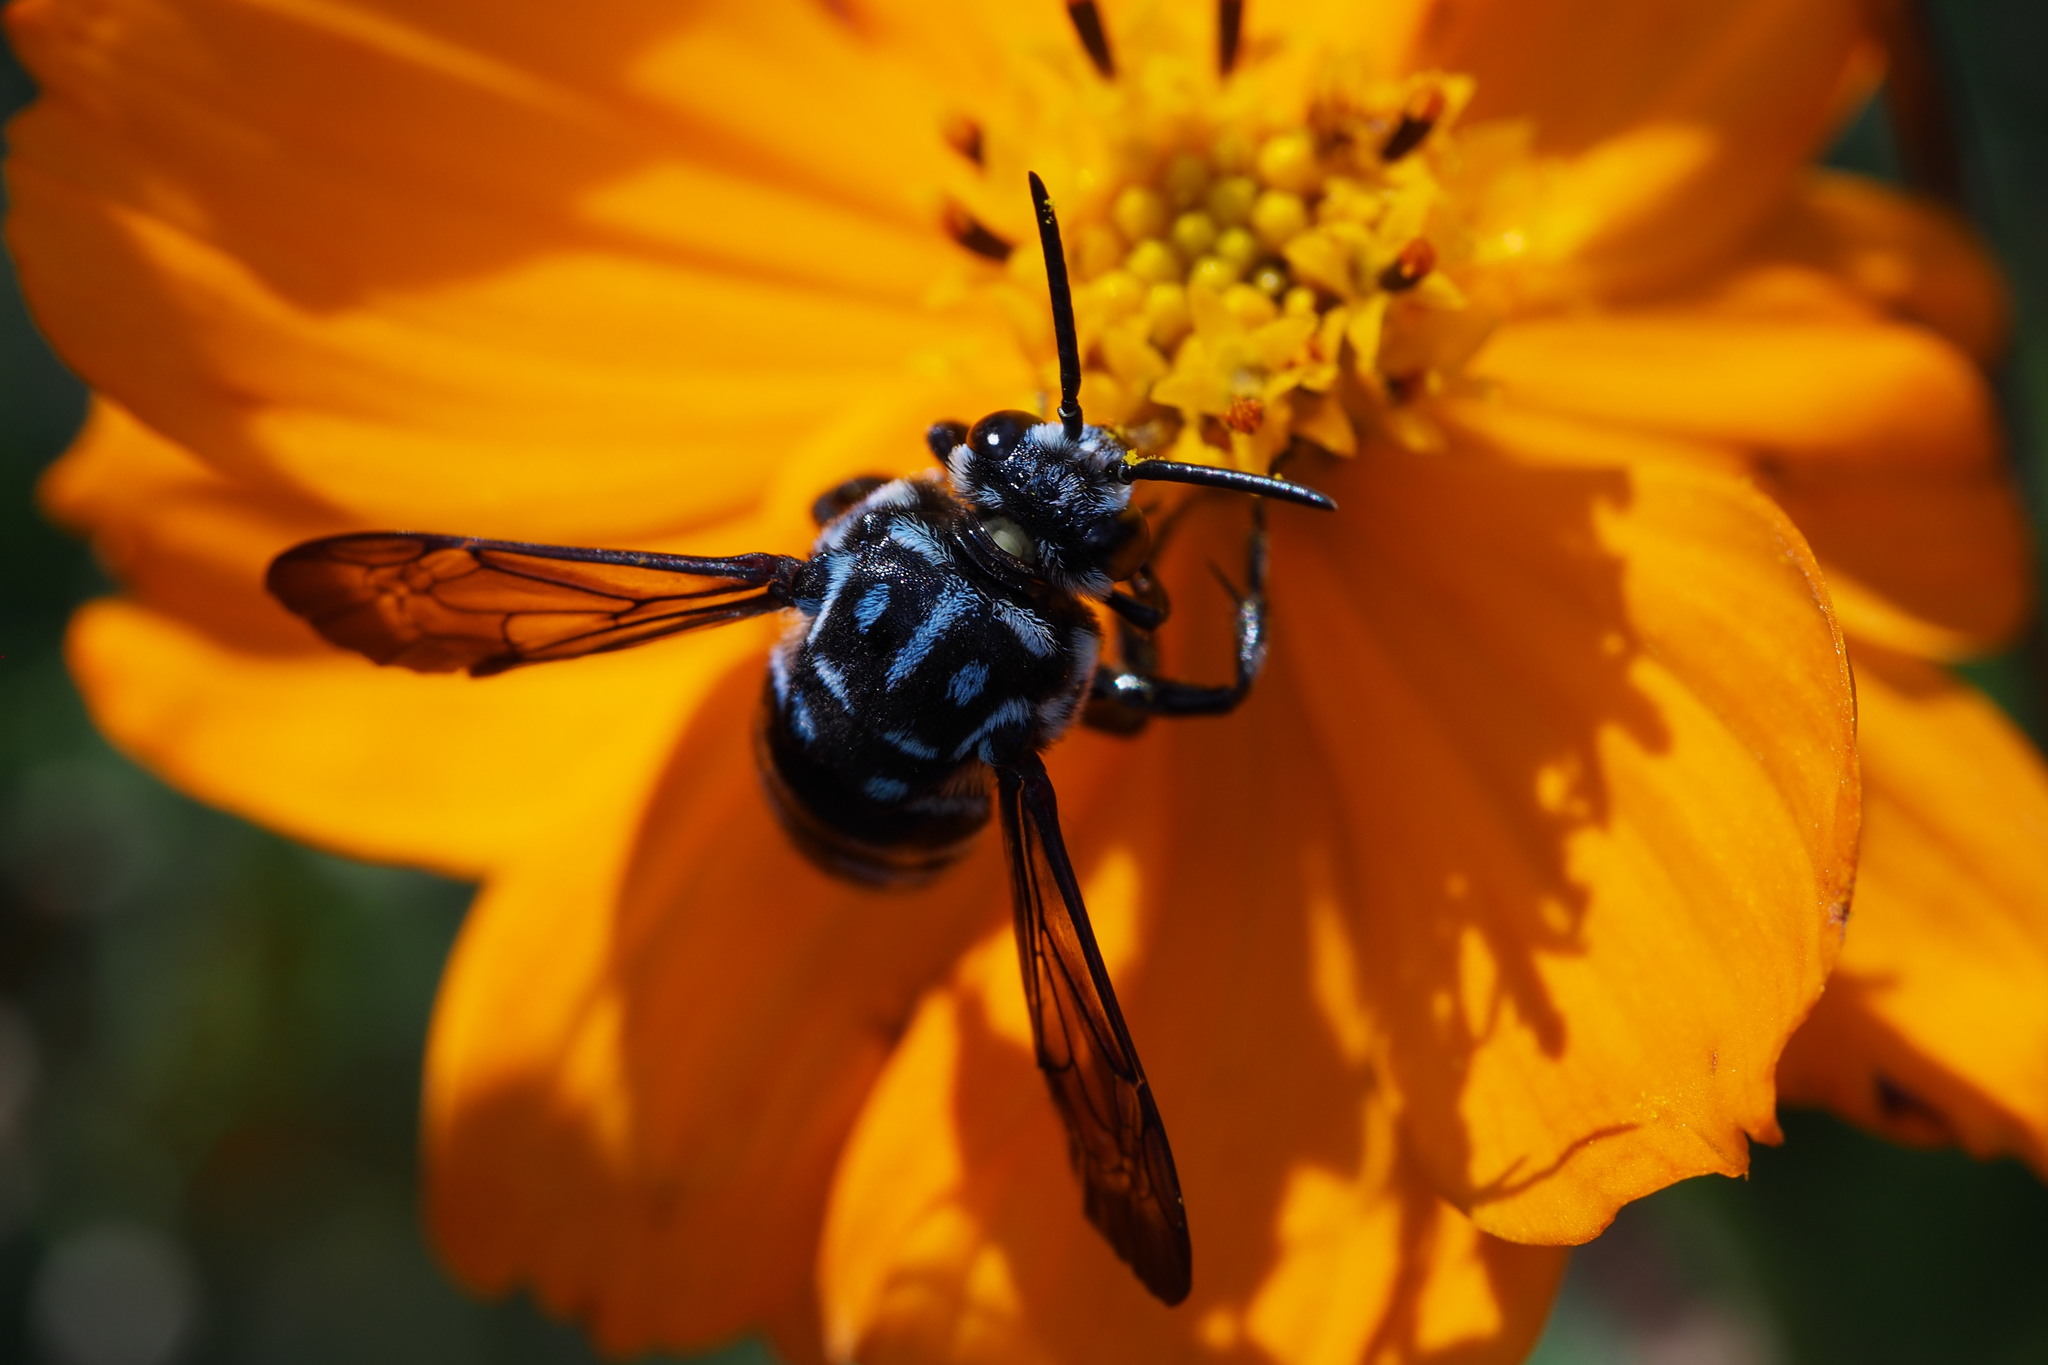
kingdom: Animalia
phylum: Arthropoda
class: Insecta
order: Hymenoptera
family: Apidae
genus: Thyreus
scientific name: Thyreus decorus
